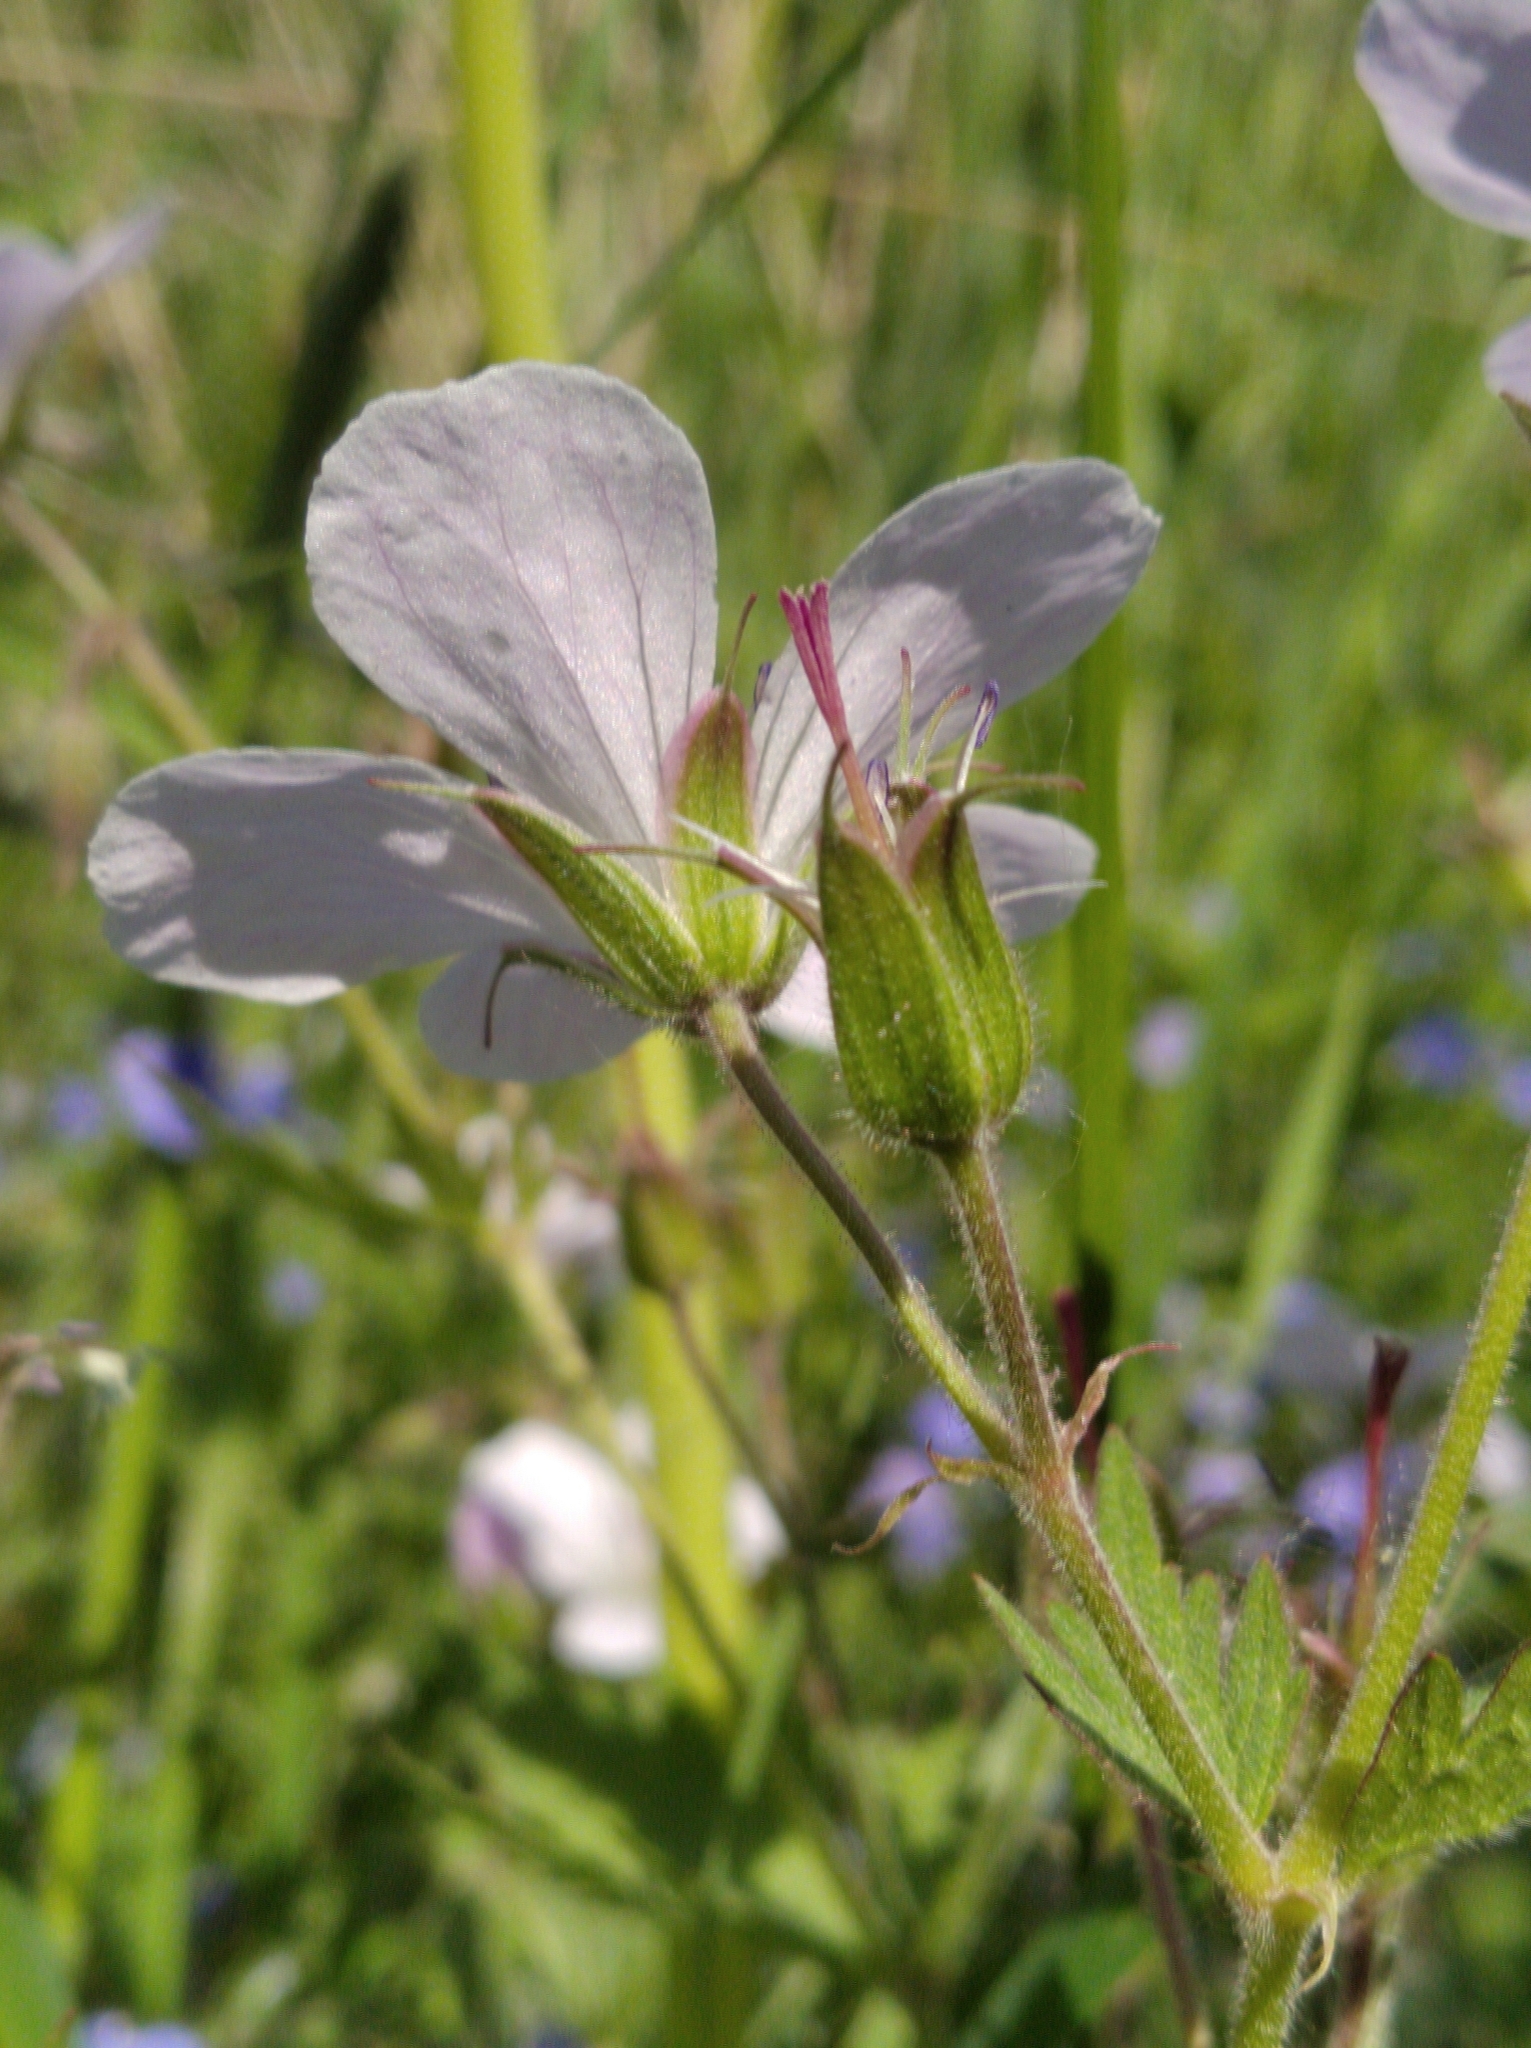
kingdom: Plantae
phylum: Tracheophyta
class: Magnoliopsida
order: Geraniales
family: Geraniaceae
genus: Geranium
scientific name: Geranium sylvaticum
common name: Wood crane's-bill
